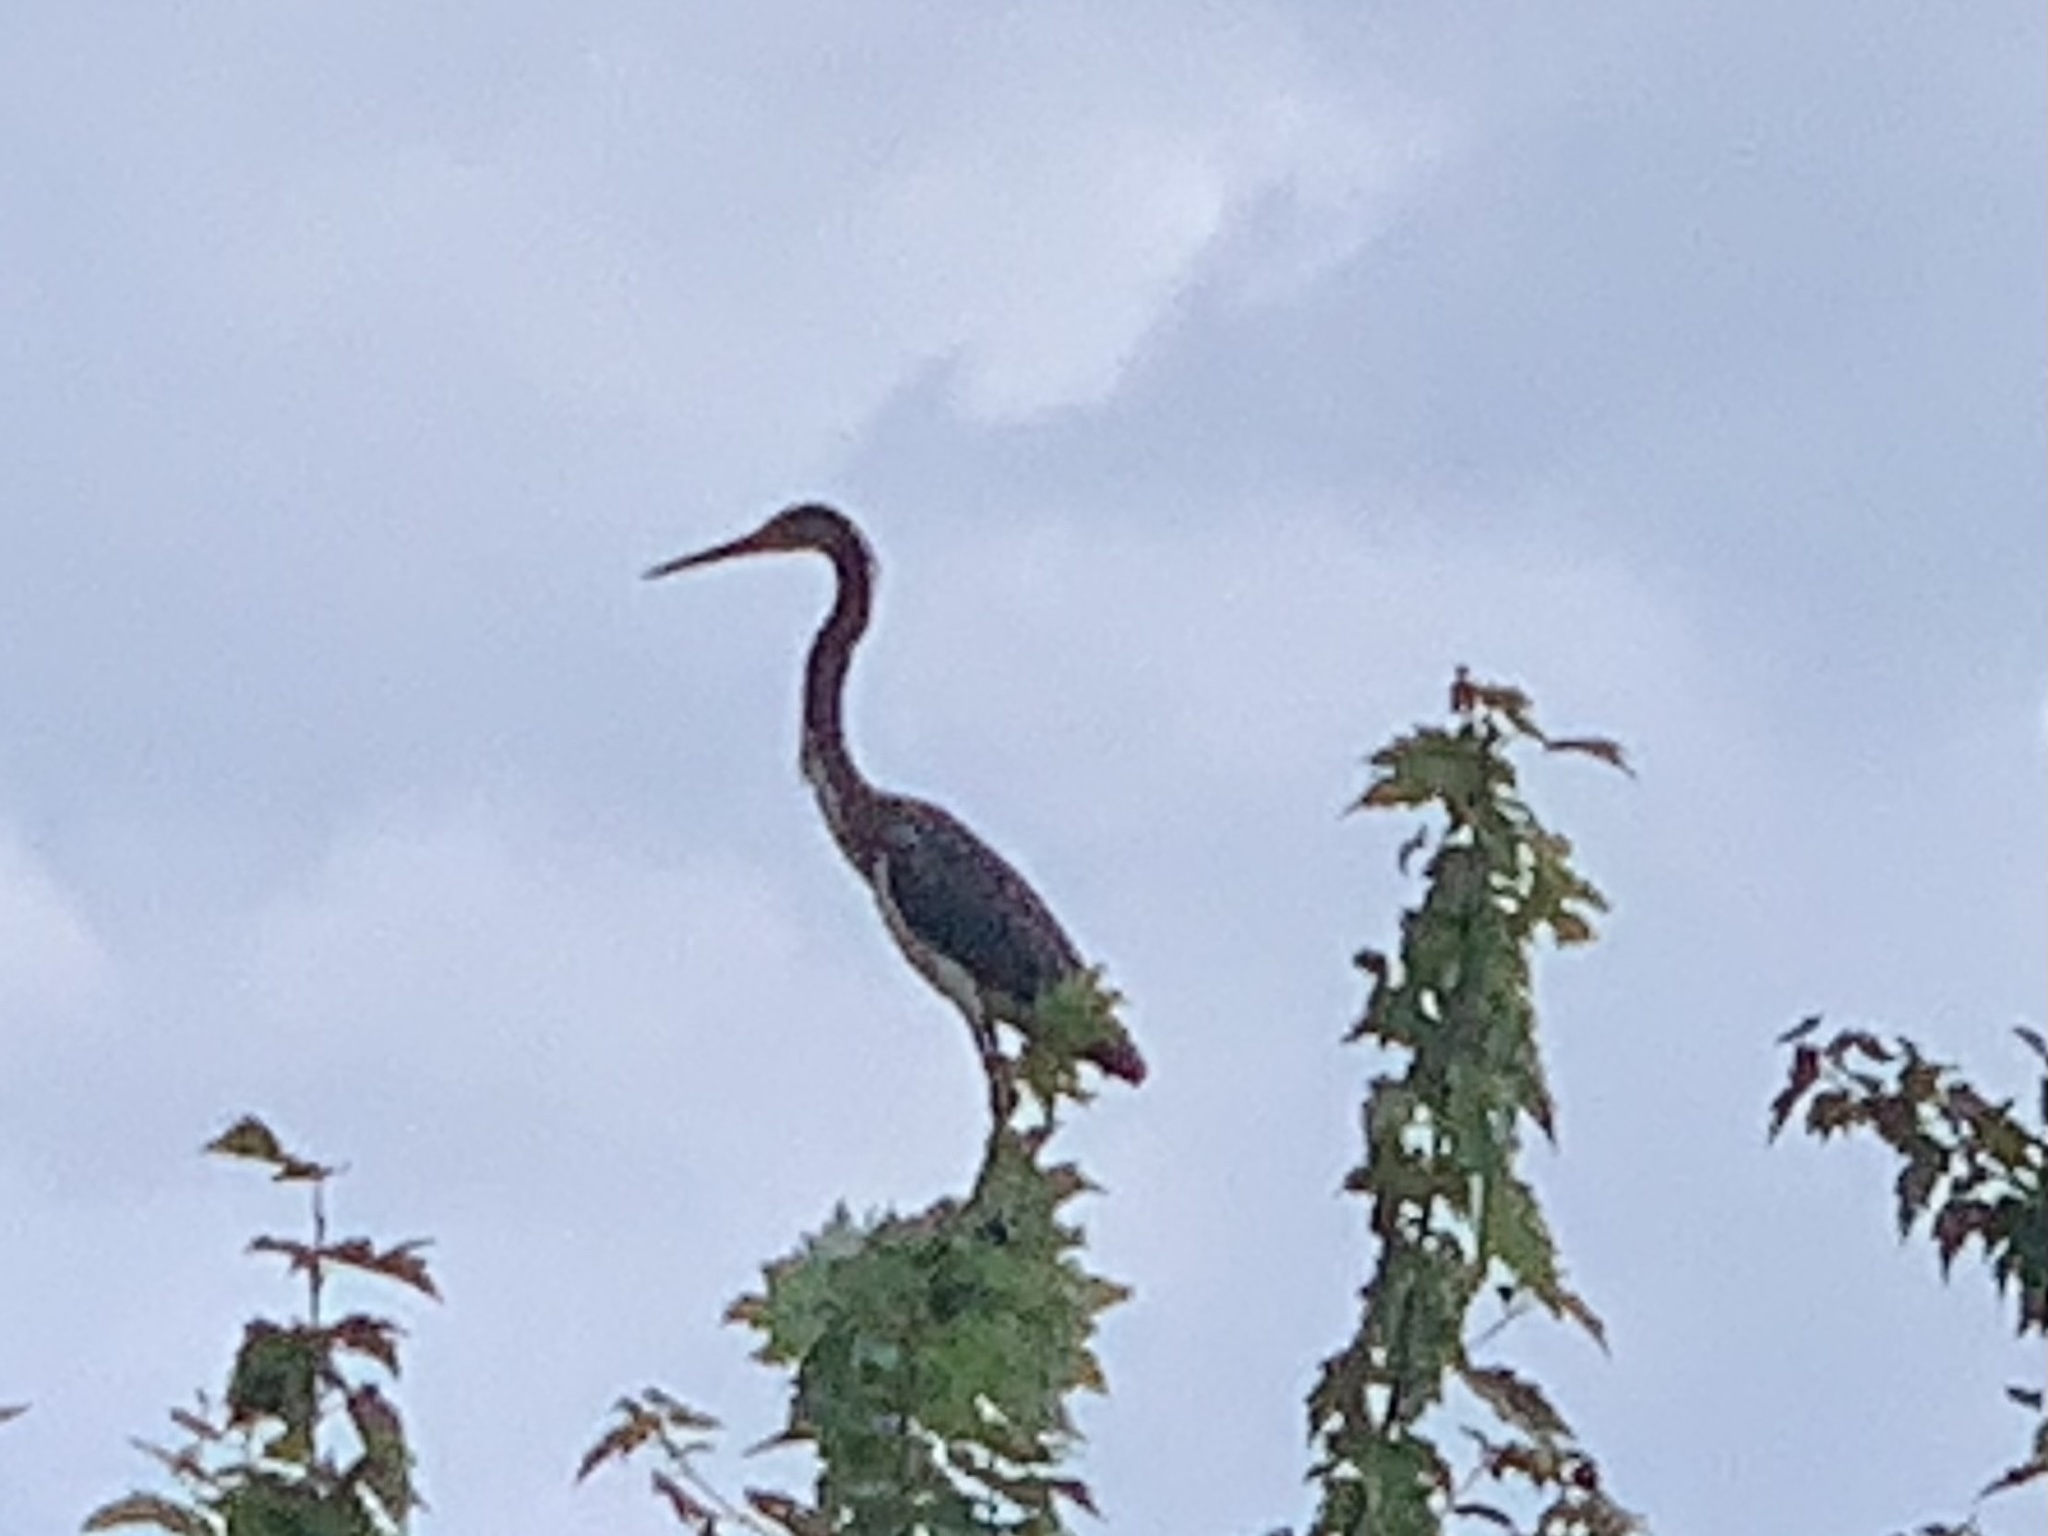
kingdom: Animalia
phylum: Chordata
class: Aves
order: Pelecaniformes
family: Ardeidae
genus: Egretta
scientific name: Egretta tricolor
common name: Tricolored heron
